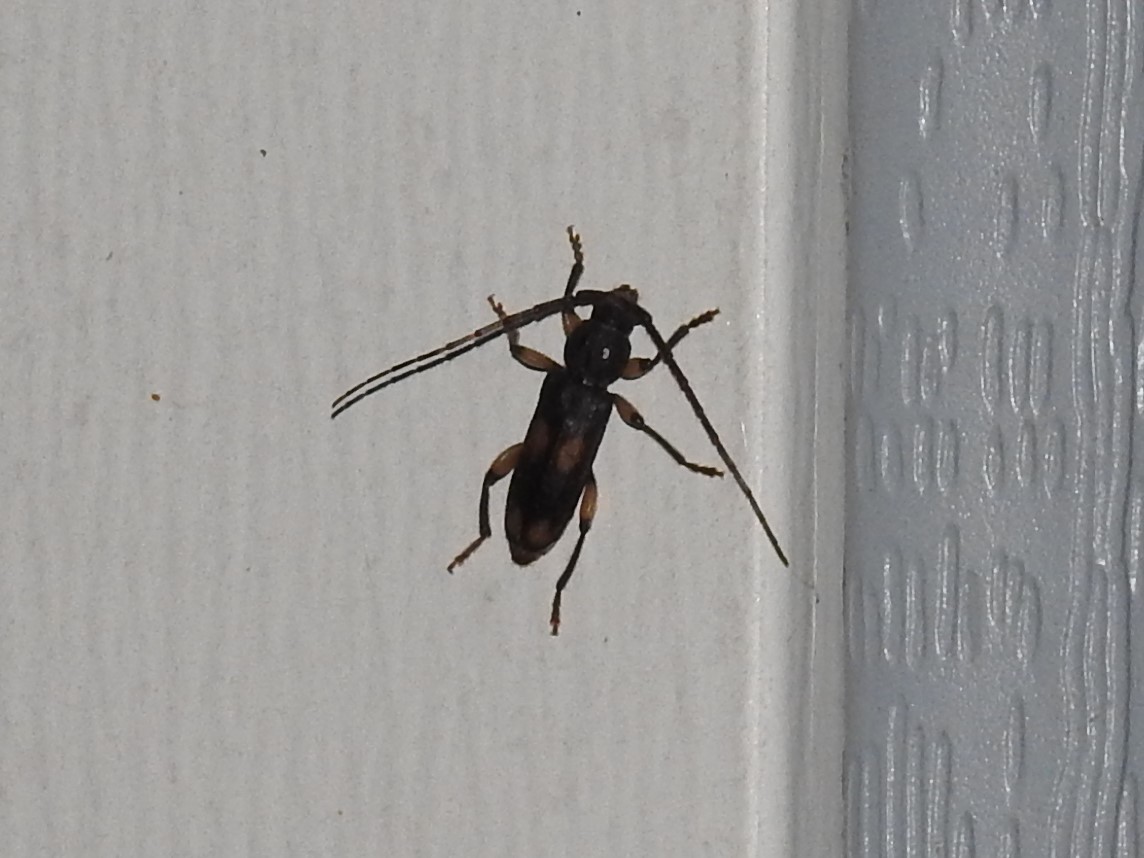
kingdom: Animalia
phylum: Arthropoda
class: Insecta
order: Coleoptera
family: Cerambycidae
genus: Tylonotus
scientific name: Tylonotus bimaculatus
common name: Ash and privet borer
